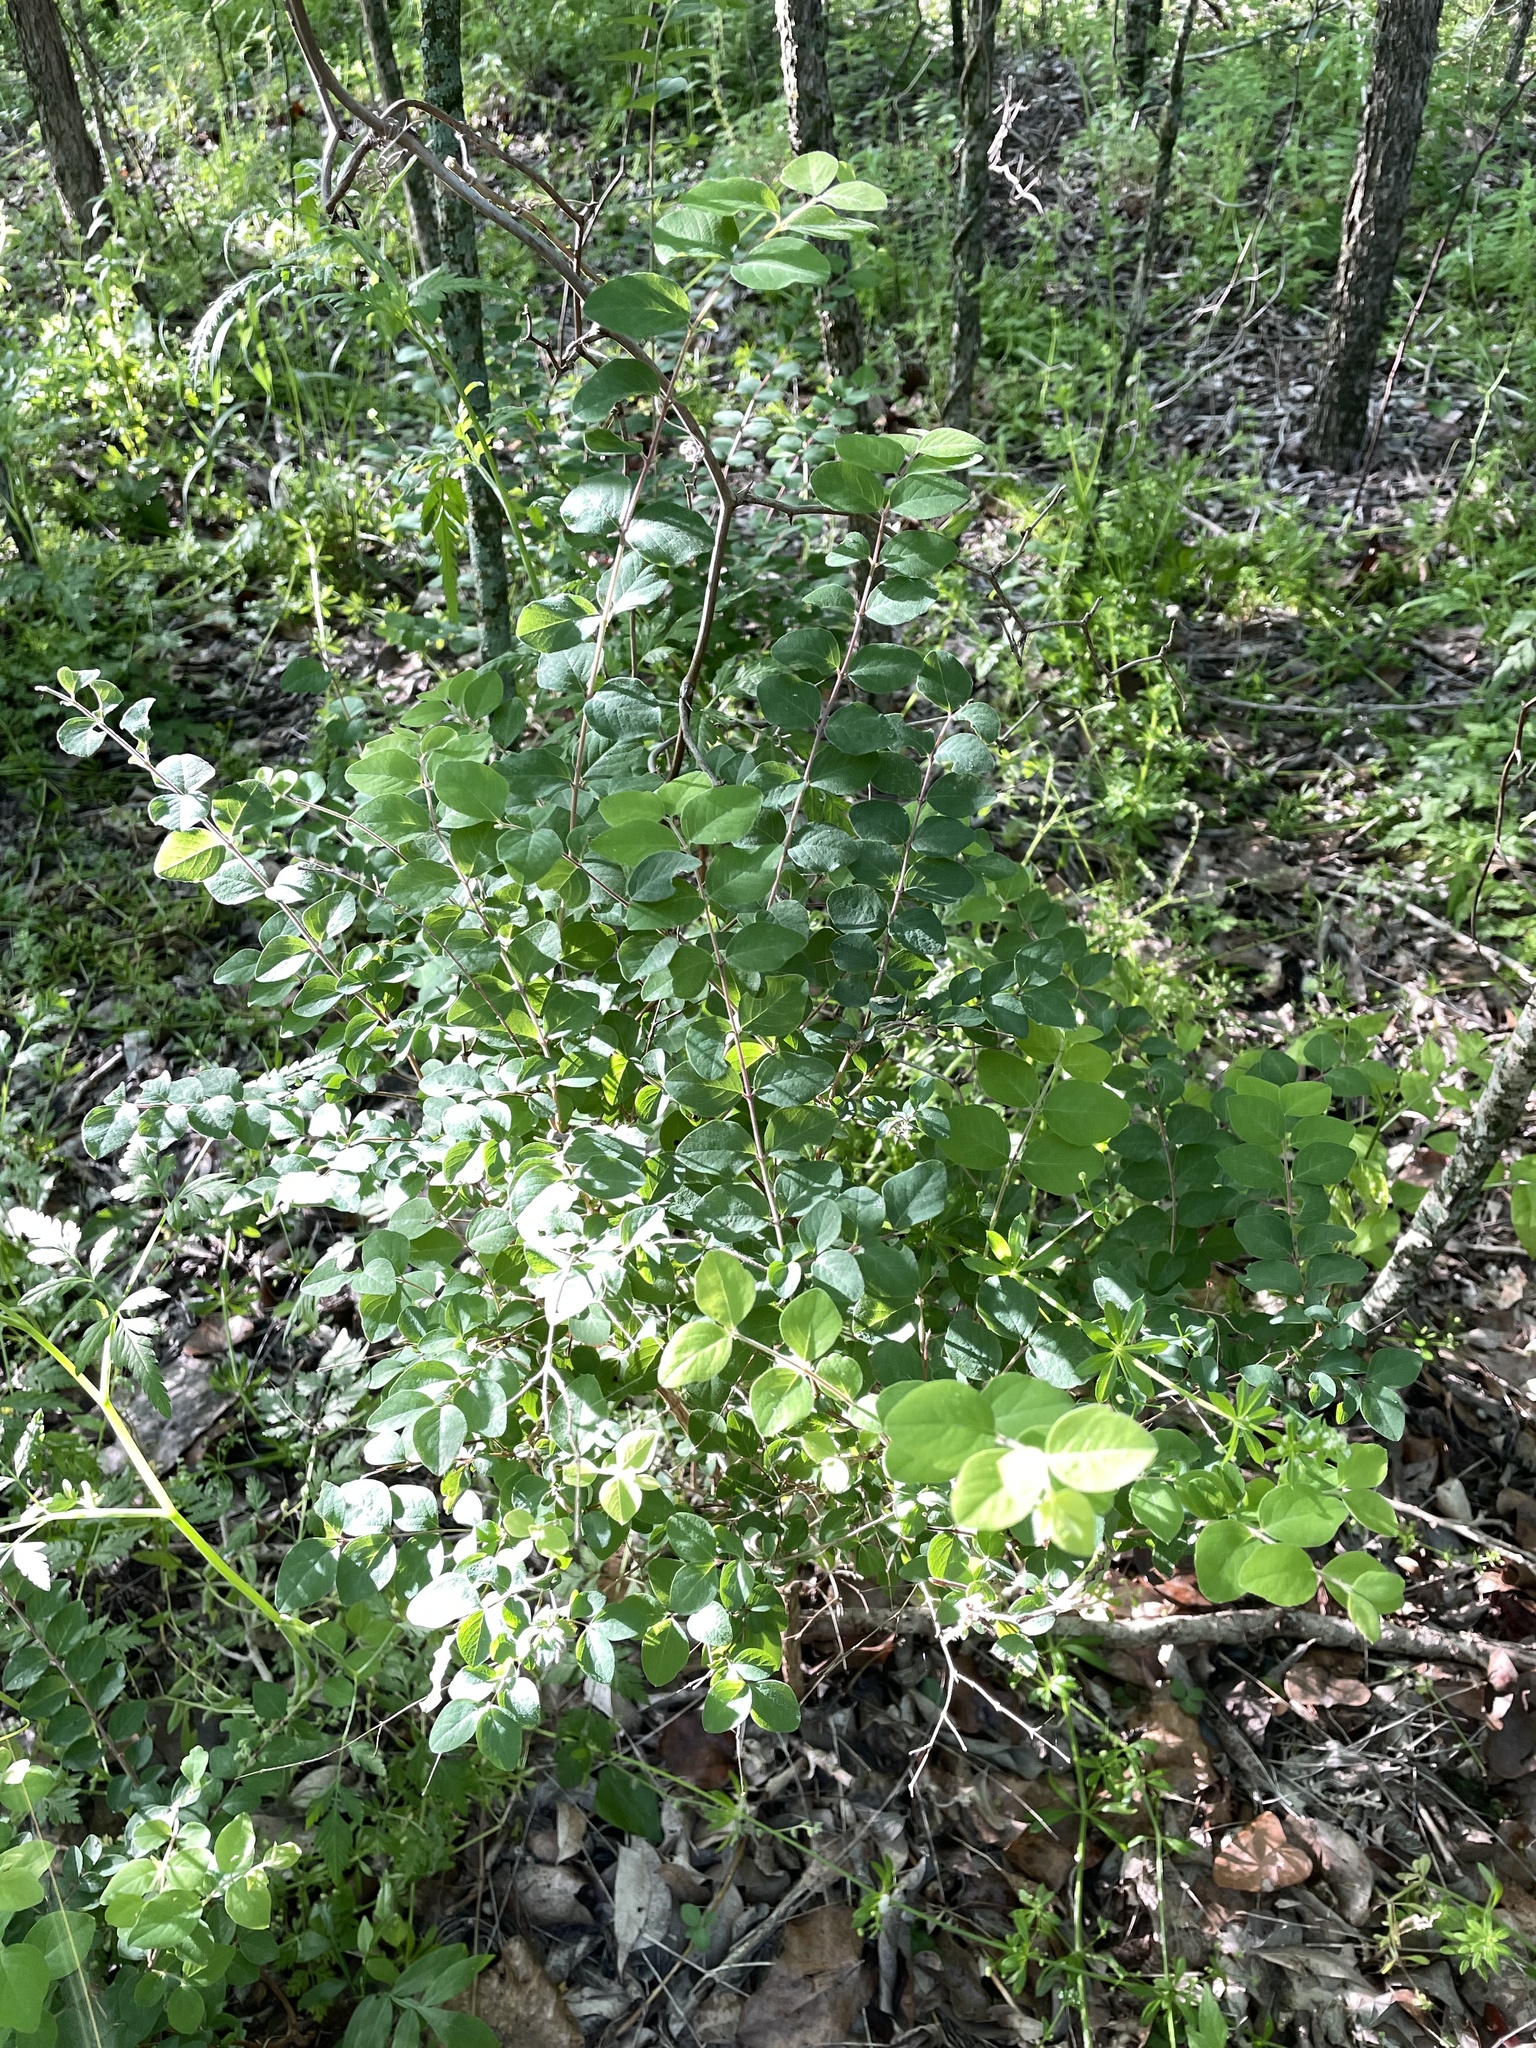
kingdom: Plantae
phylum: Tracheophyta
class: Magnoliopsida
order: Dipsacales
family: Caprifoliaceae
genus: Symphoricarpos
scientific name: Symphoricarpos orbiculatus
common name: Coralberry
